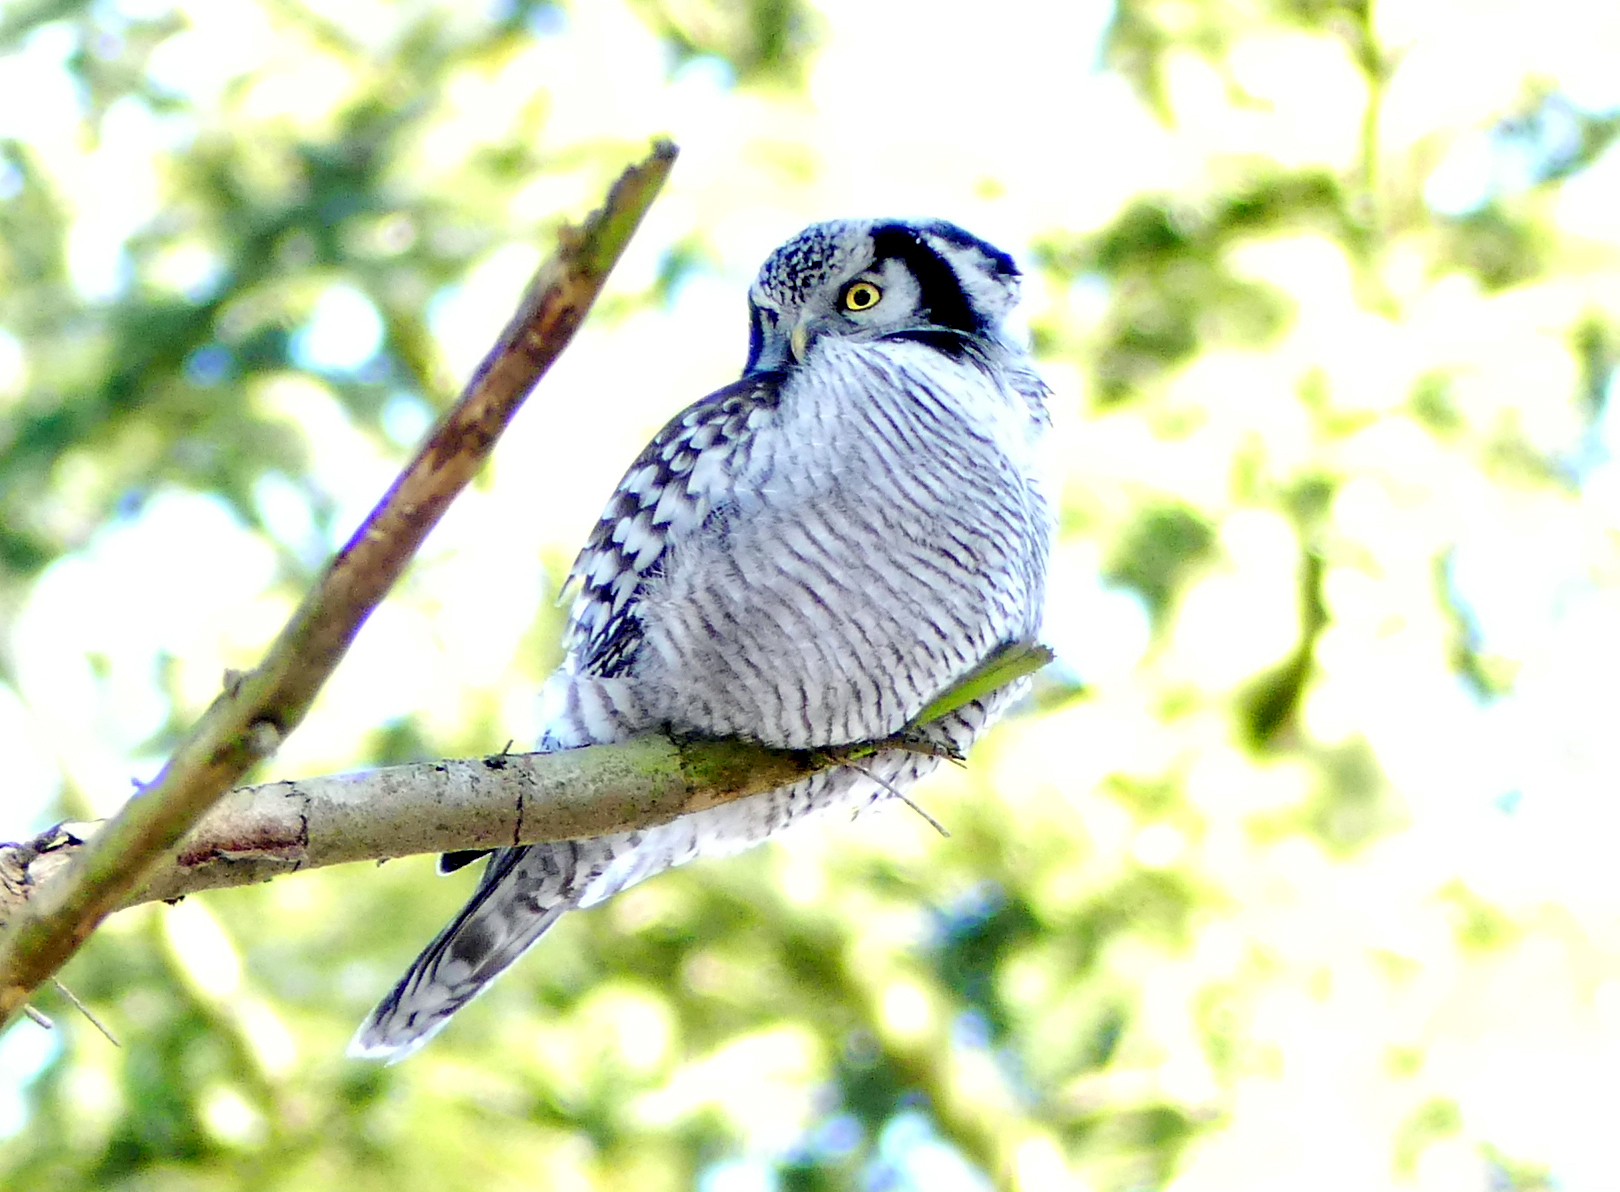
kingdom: Animalia
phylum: Chordata
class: Aves
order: Strigiformes
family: Strigidae
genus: Surnia
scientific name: Surnia ulula
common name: Northern hawk-owl
